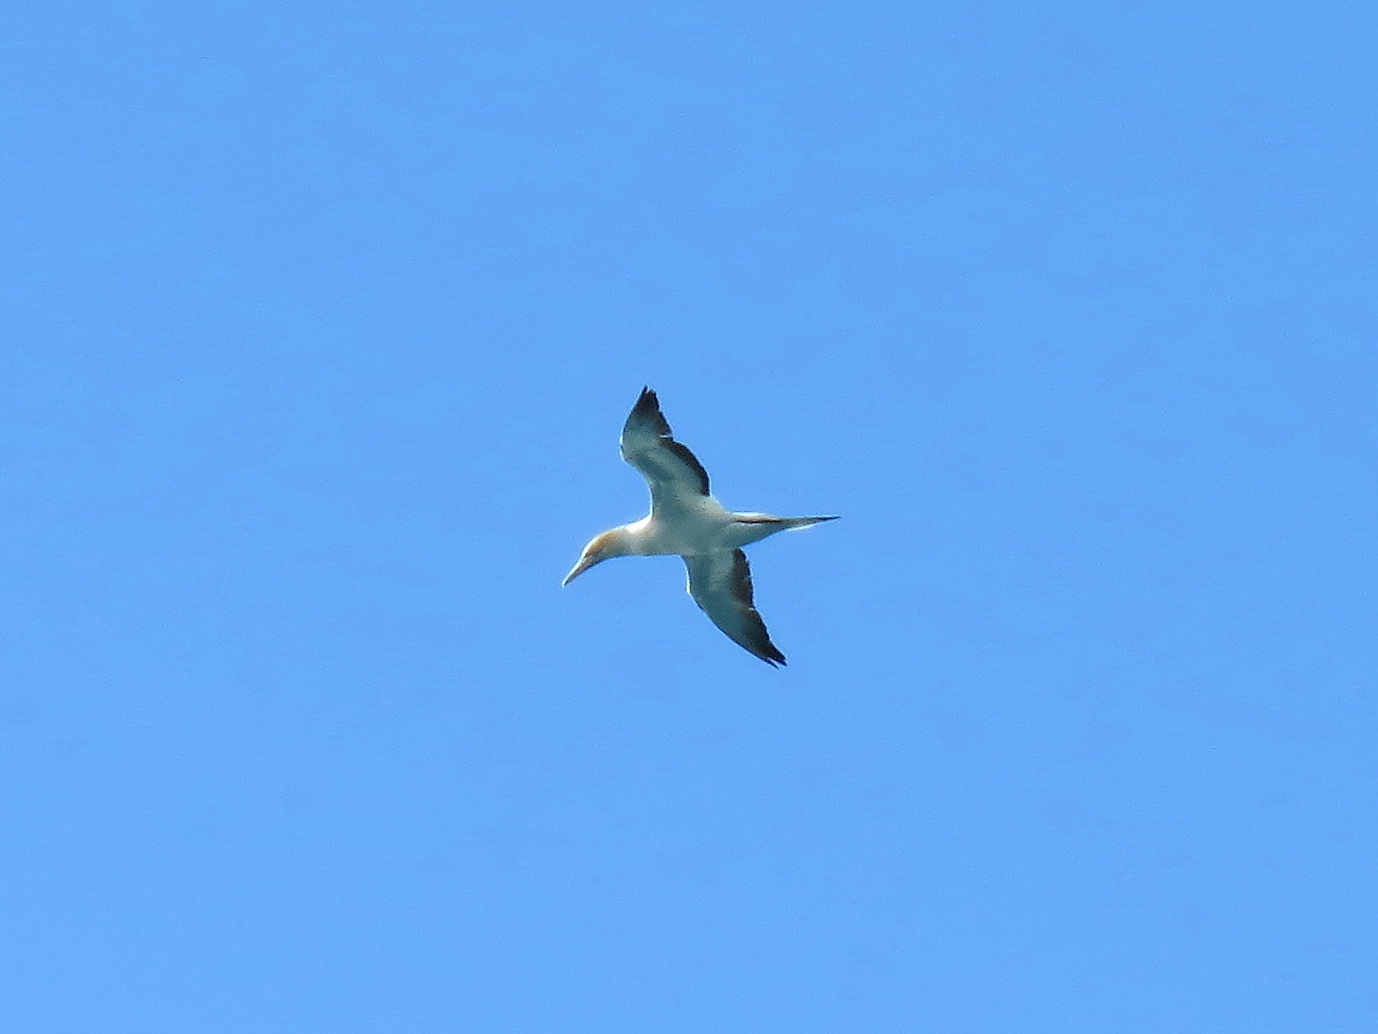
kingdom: Animalia
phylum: Chordata
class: Aves
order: Suliformes
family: Sulidae
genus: Morus
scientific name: Morus serrator
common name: Australasian gannet
